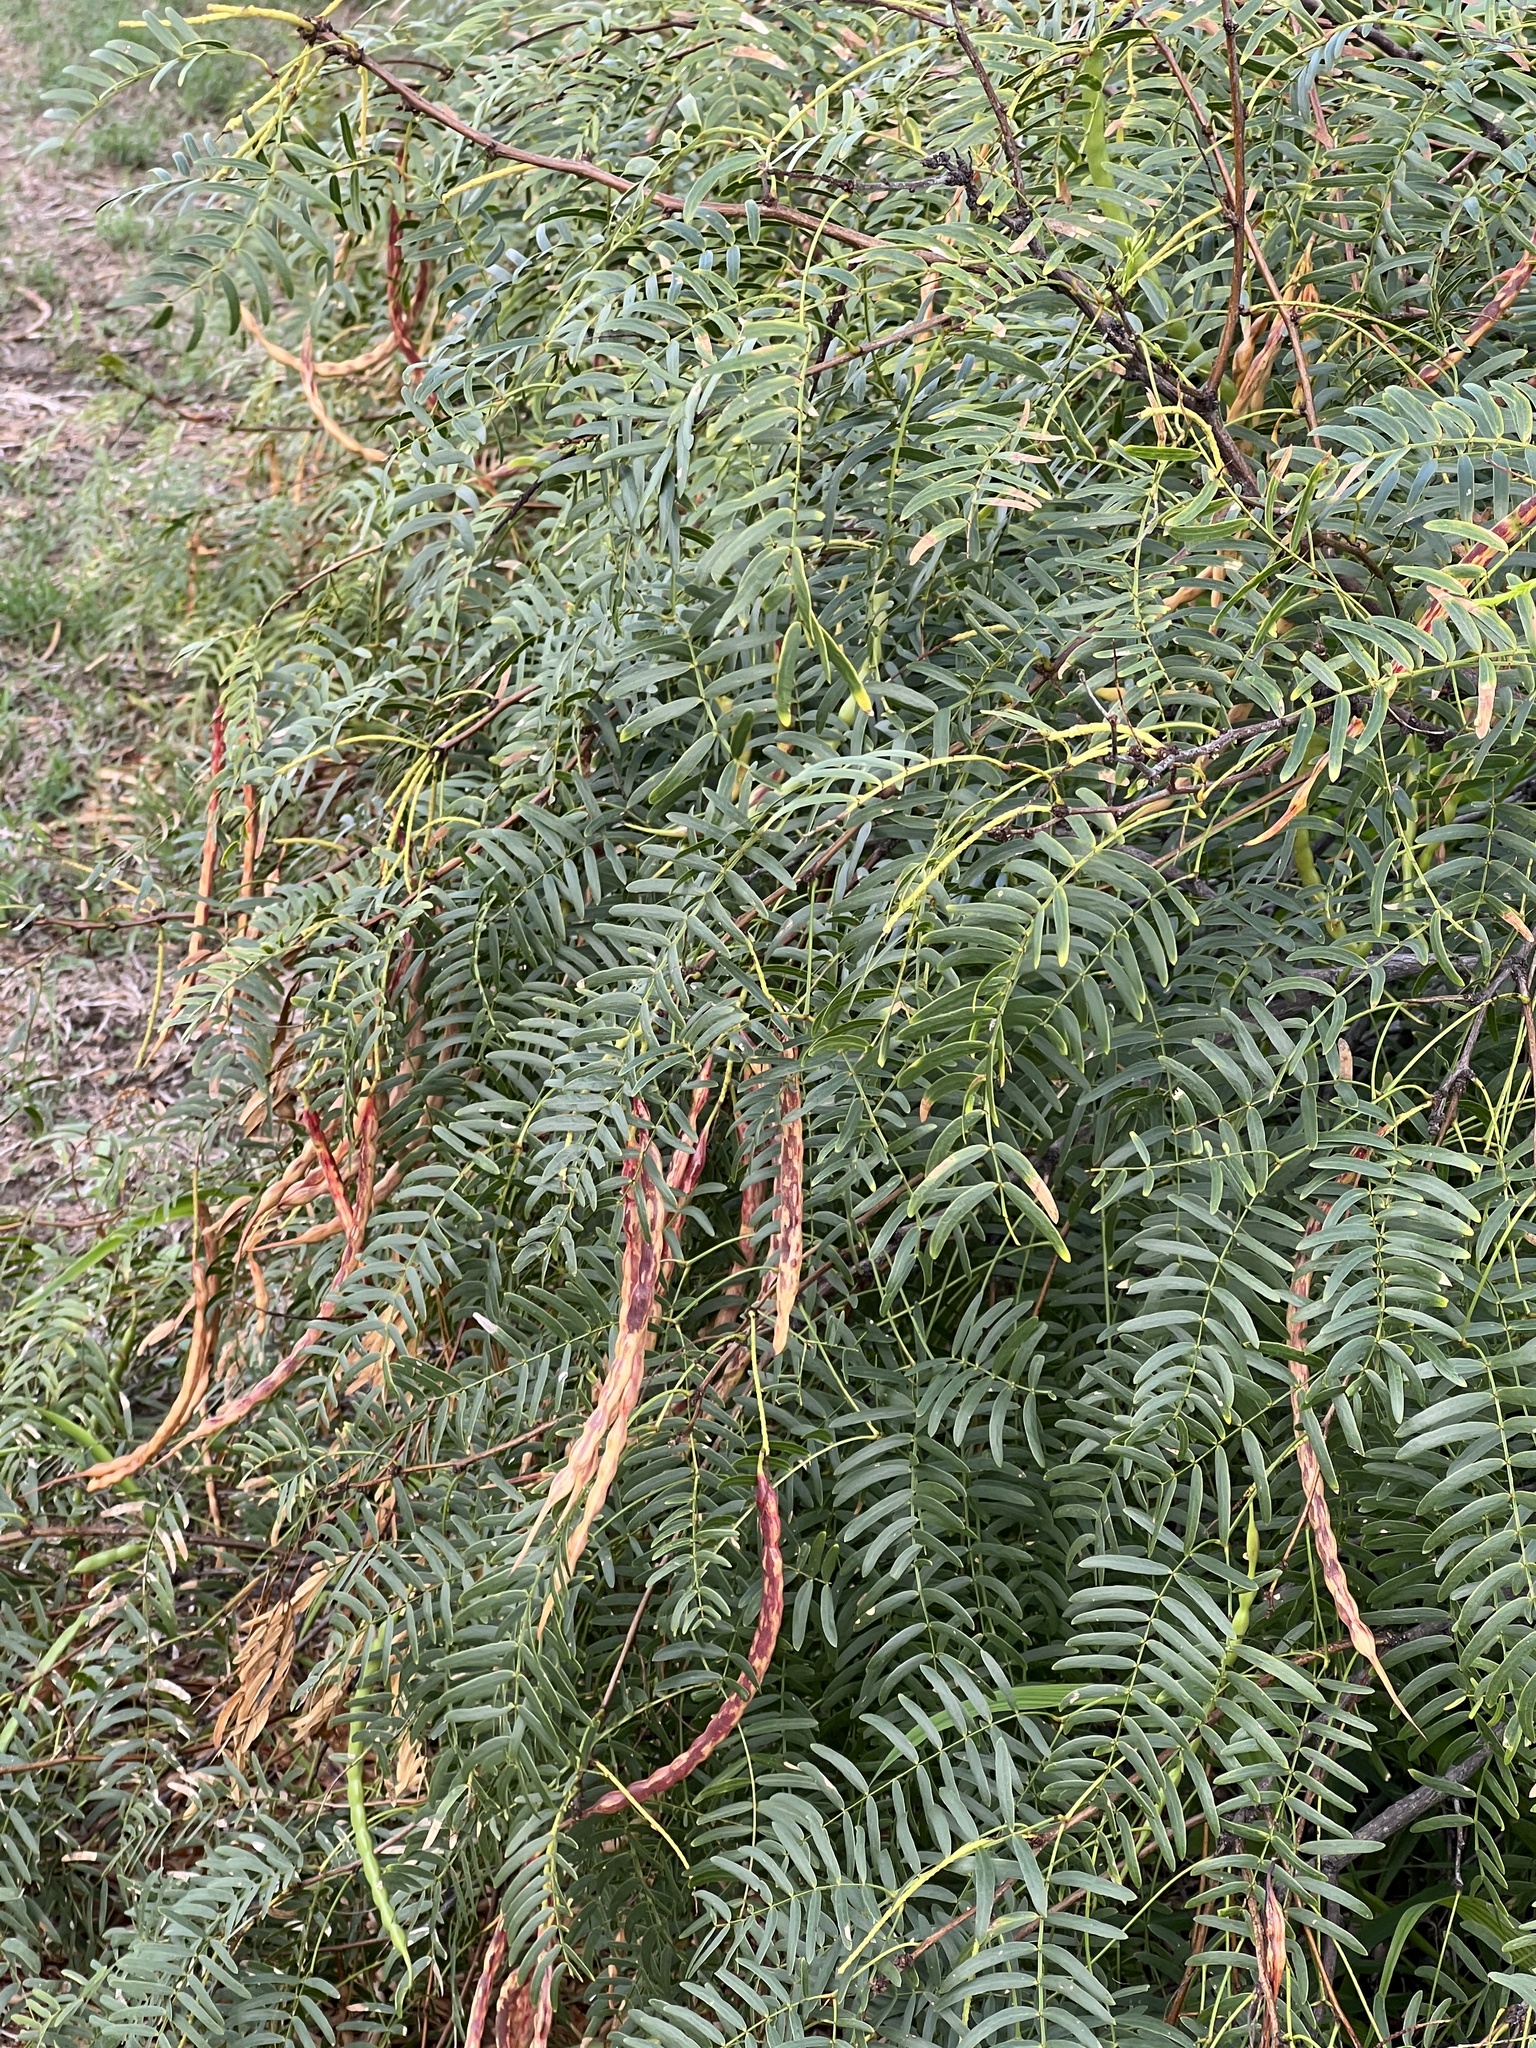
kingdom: Plantae
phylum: Tracheophyta
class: Magnoliopsida
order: Fabales
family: Fabaceae
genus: Prosopis
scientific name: Prosopis glandulosa
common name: Honey mesquite
